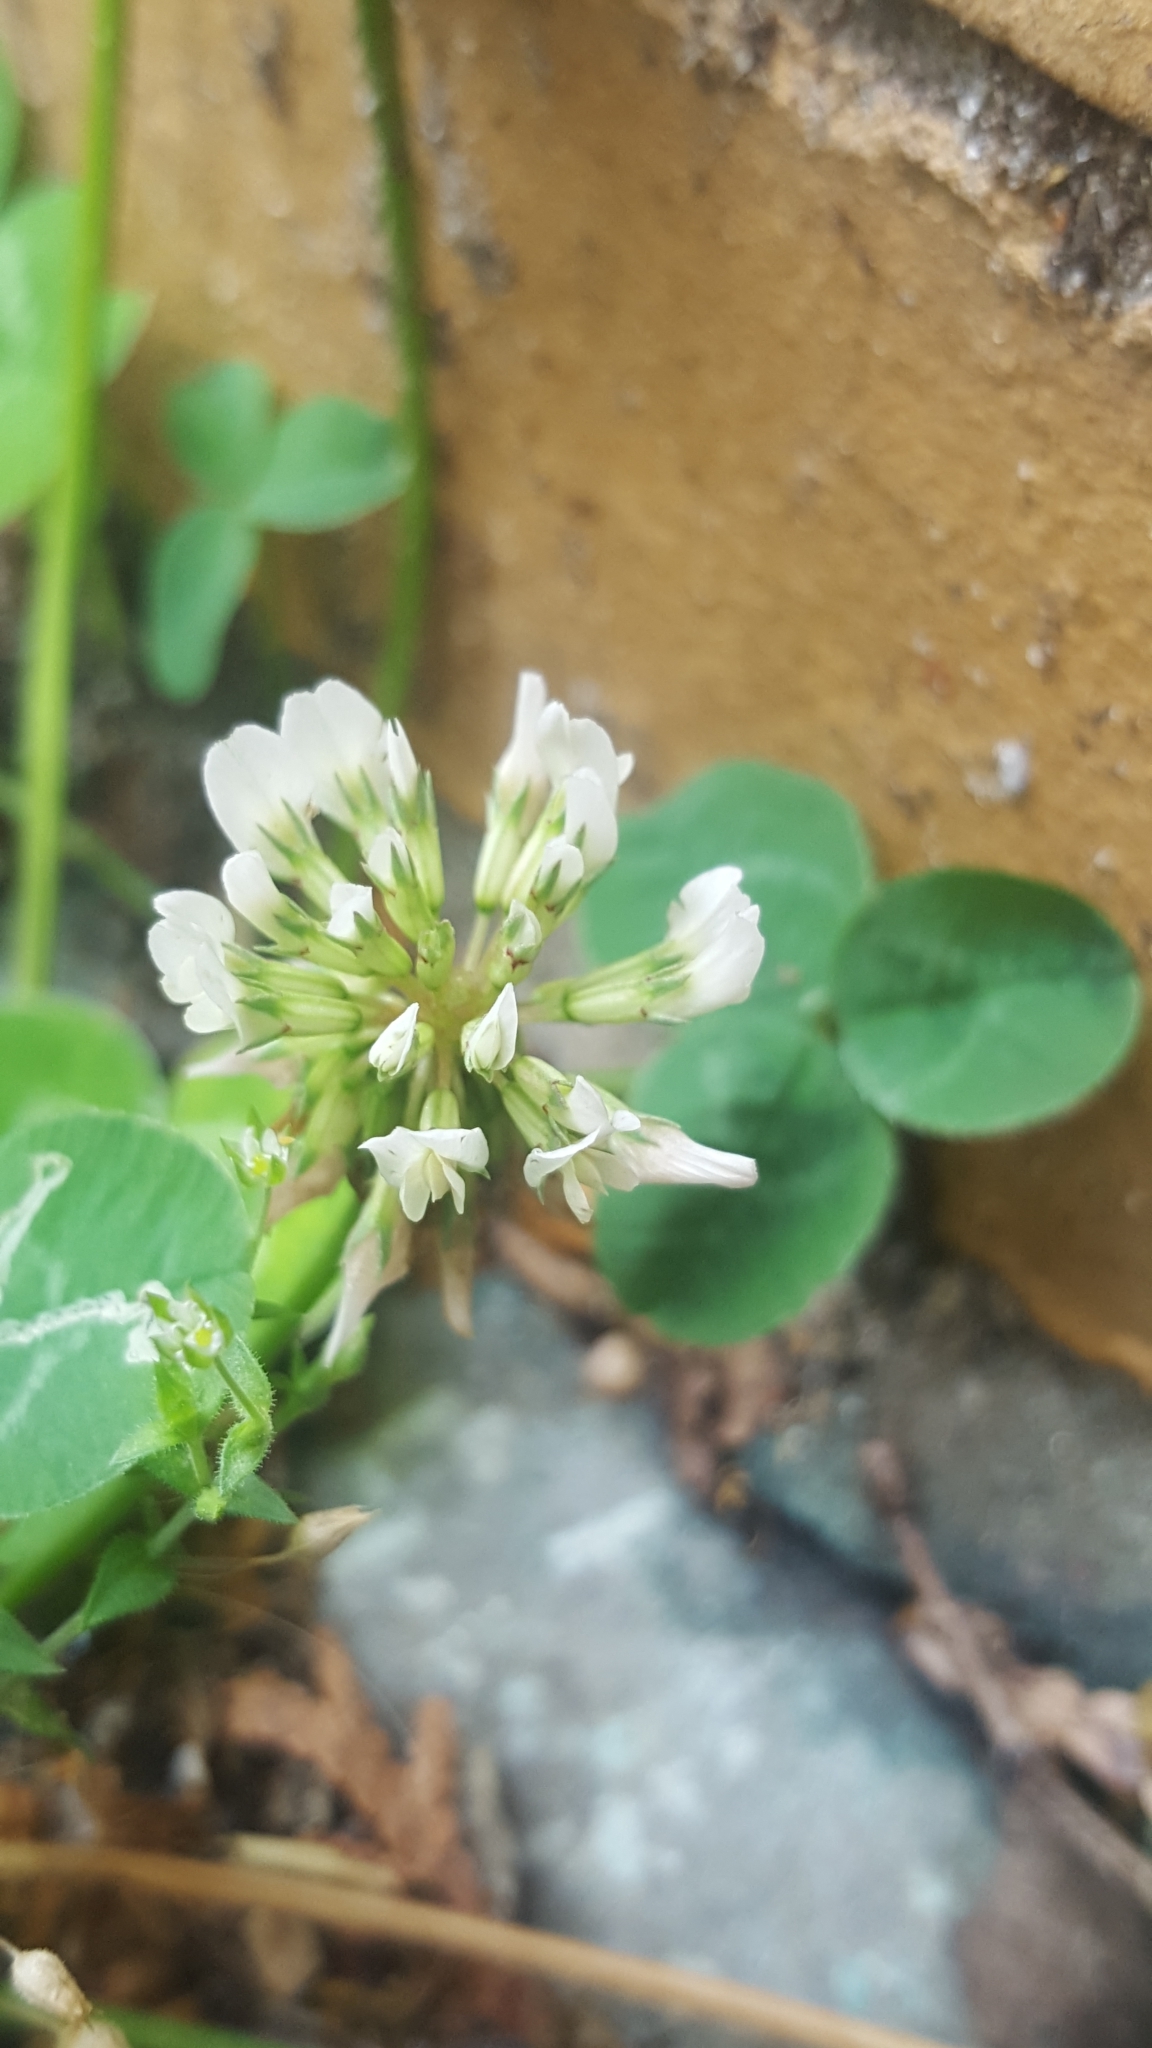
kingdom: Plantae
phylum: Tracheophyta
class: Magnoliopsida
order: Fabales
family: Fabaceae
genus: Trifolium
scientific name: Trifolium repens
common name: White clover
